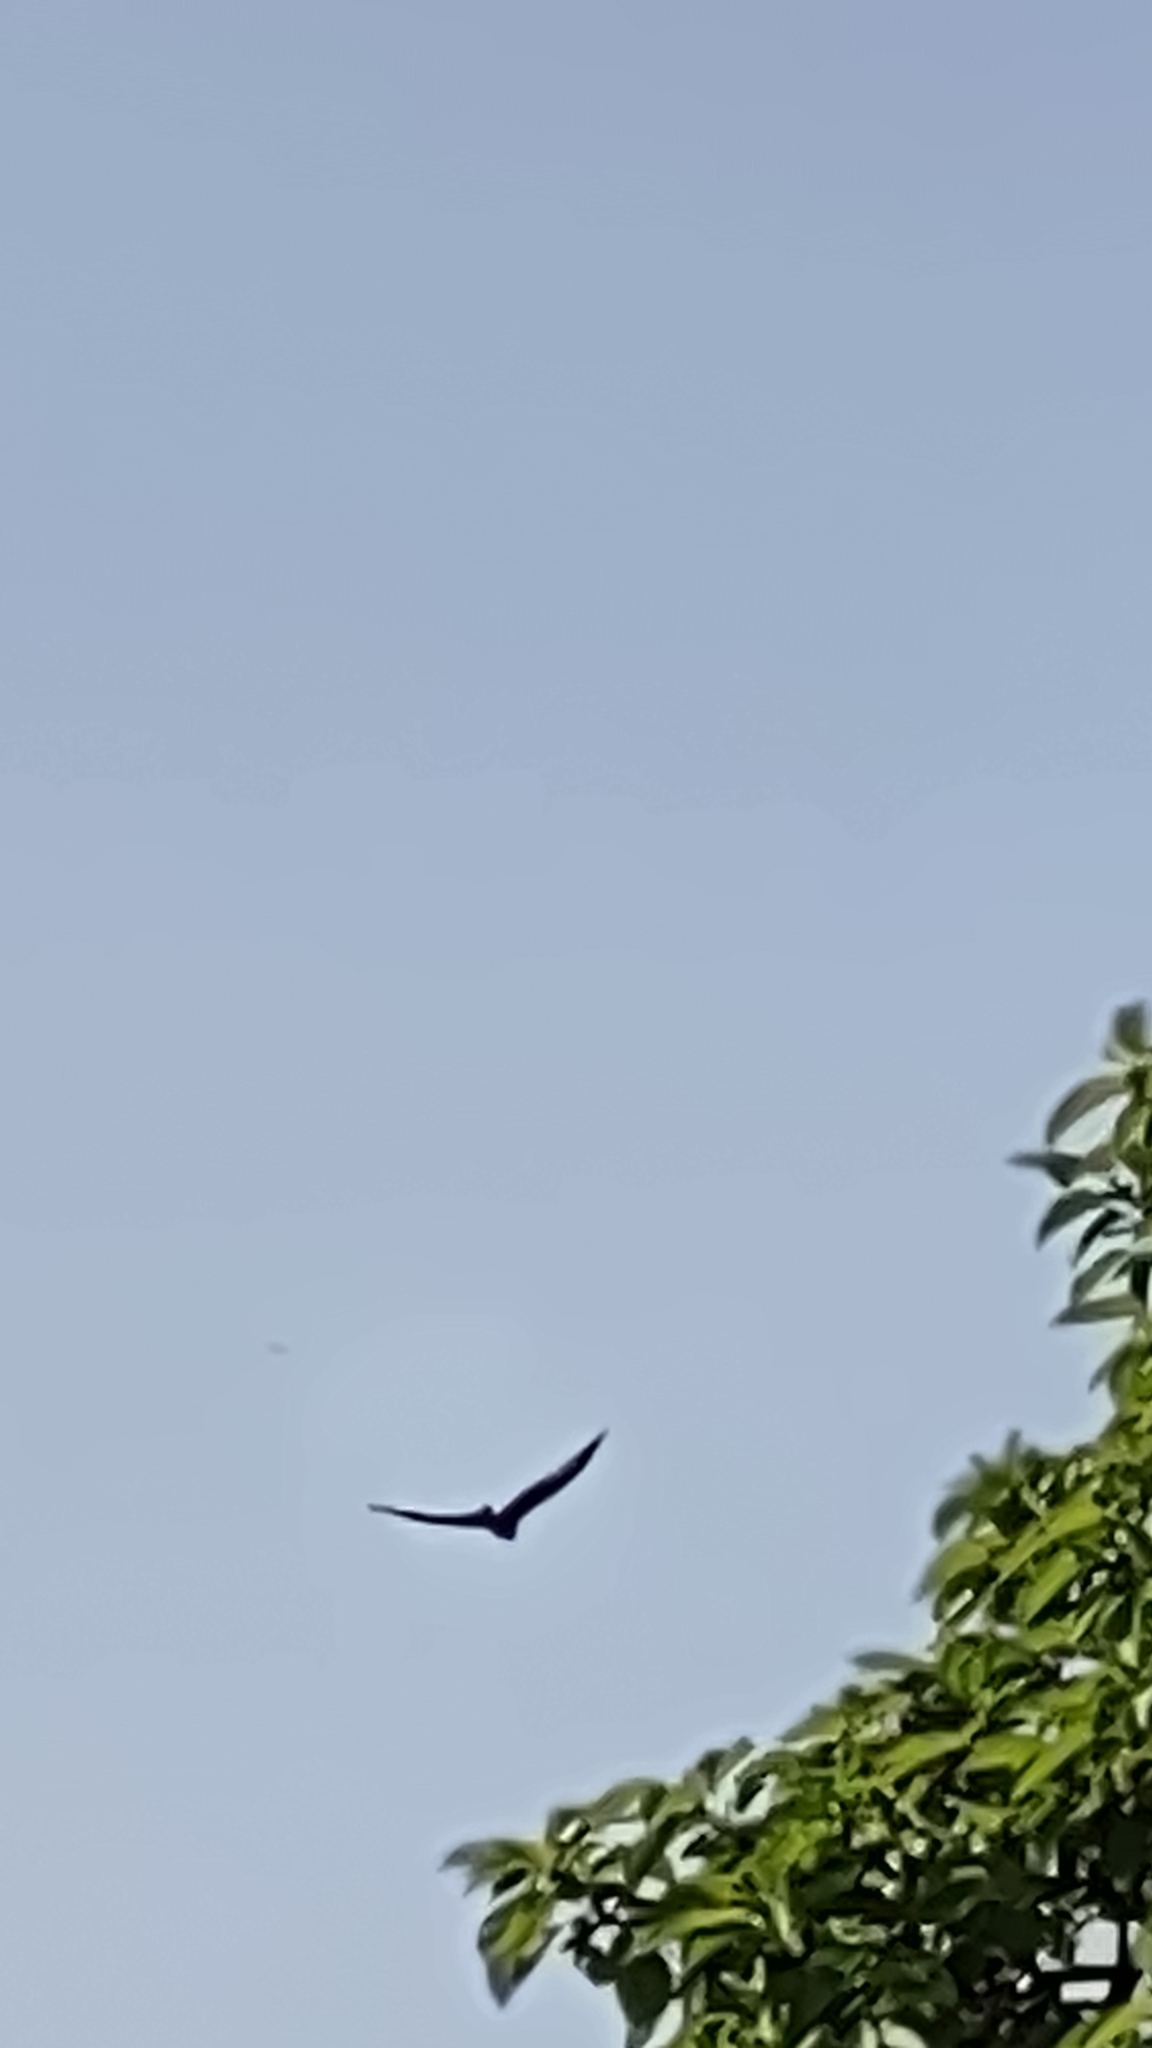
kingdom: Animalia
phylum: Chordata
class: Aves
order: Accipitriformes
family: Accipitridae
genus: Milvus
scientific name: Milvus milvus
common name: Red kite
